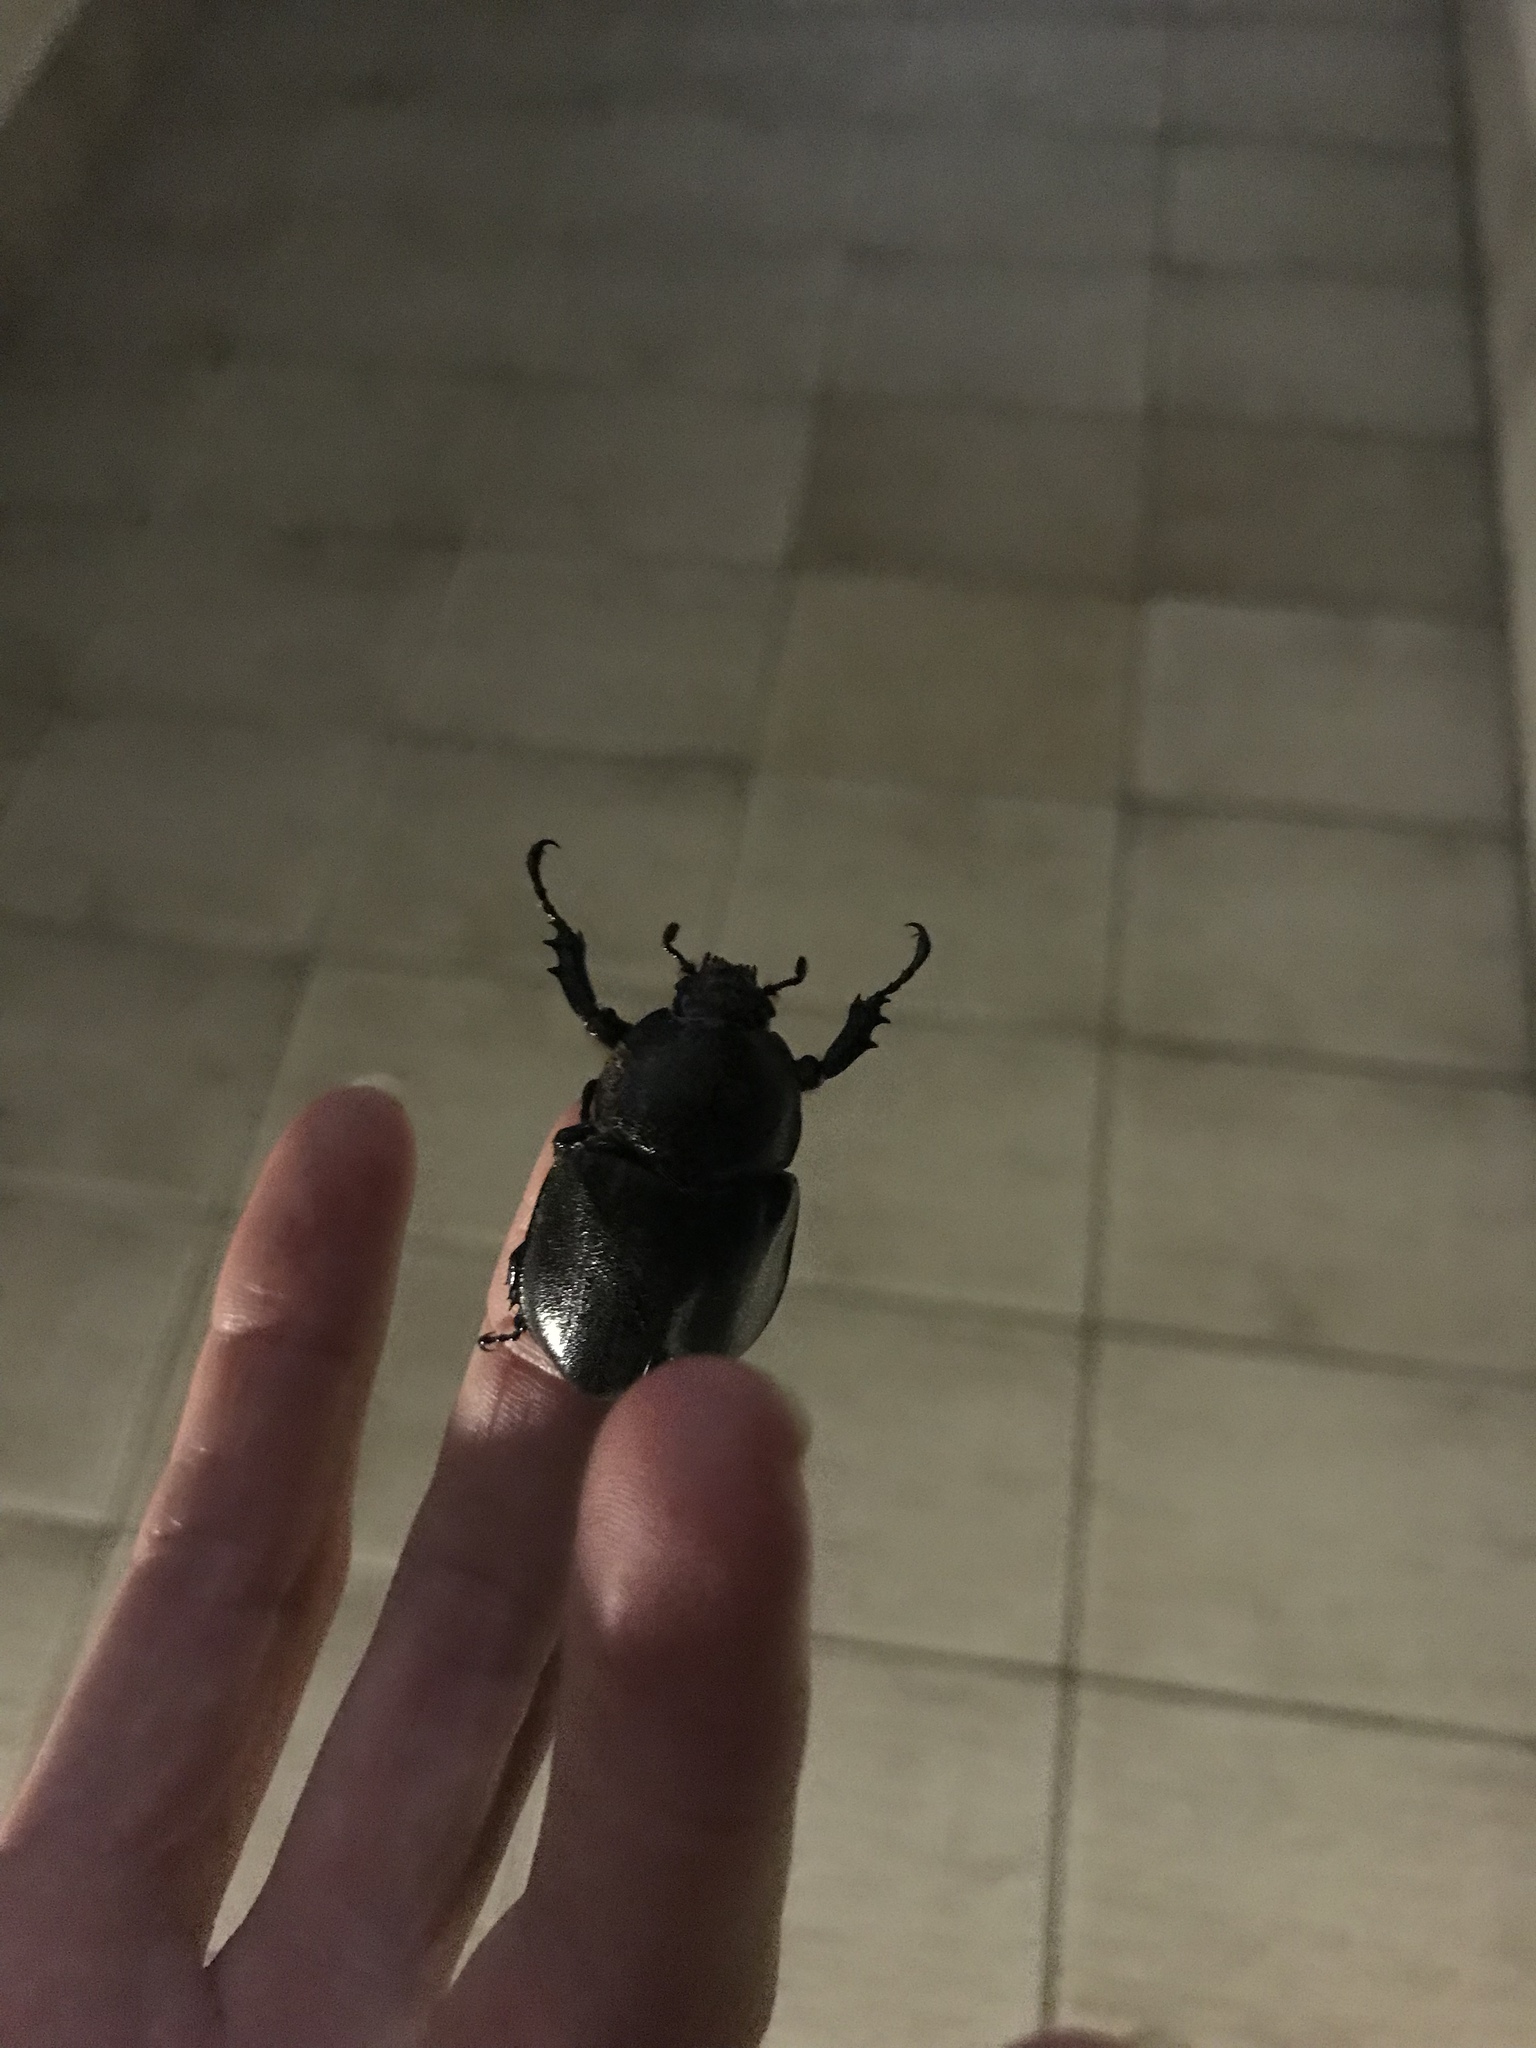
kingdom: Animalia
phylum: Arthropoda
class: Insecta
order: Coleoptera
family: Scarabaeidae
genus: Xylotrupes
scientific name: Xylotrupes australicus
